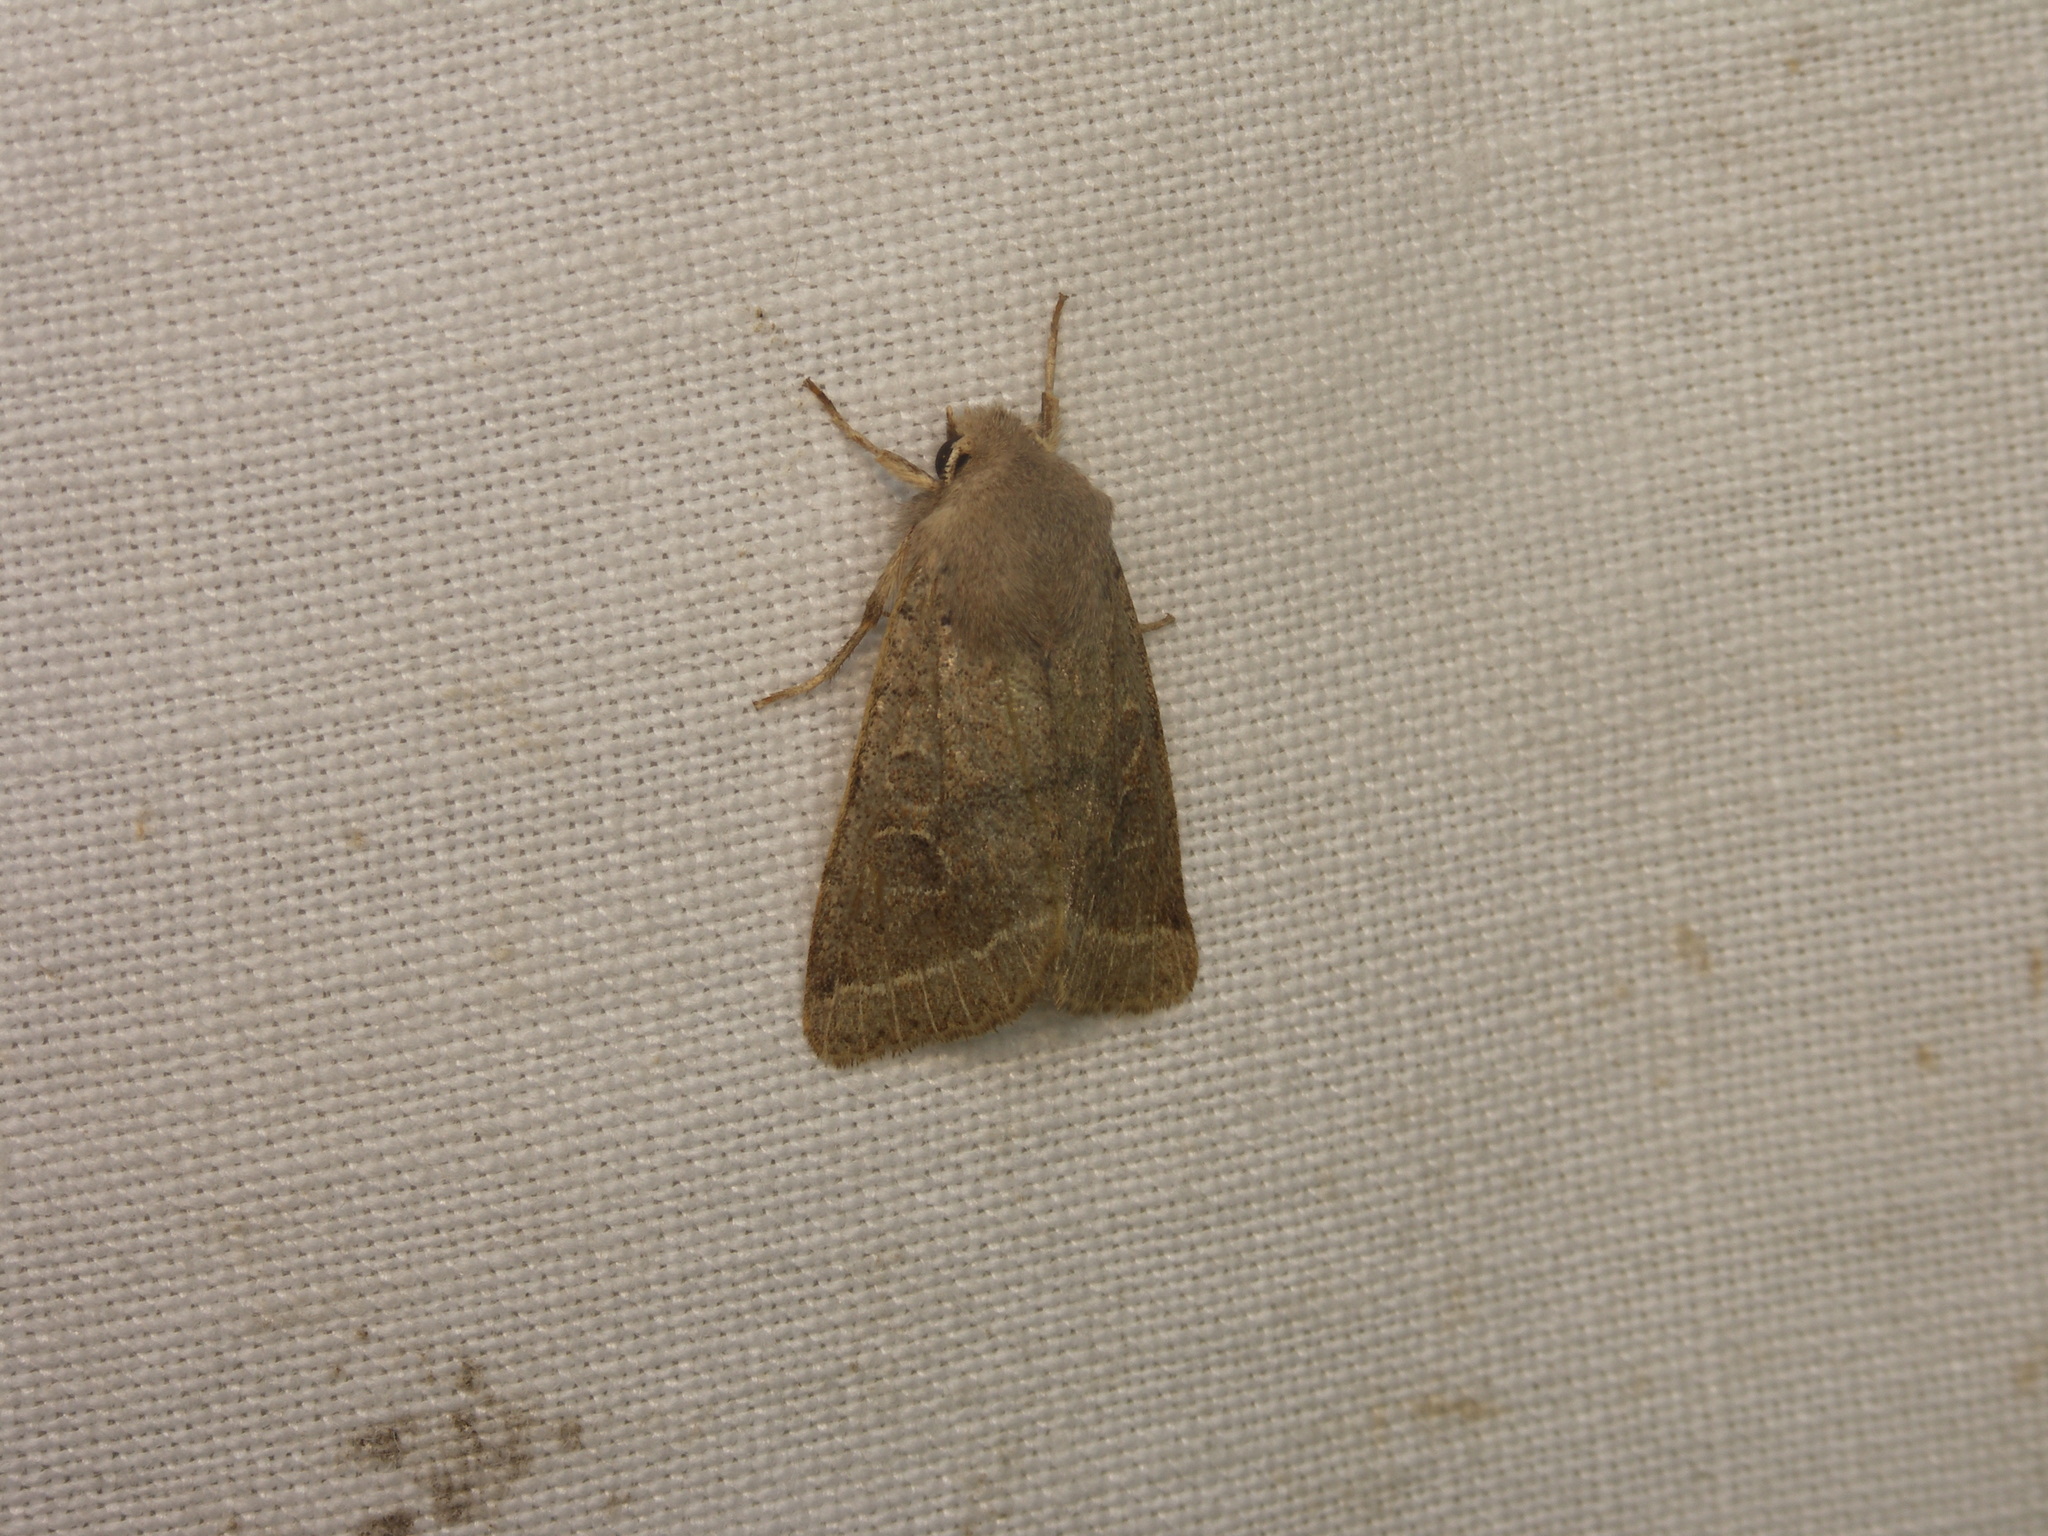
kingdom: Animalia
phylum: Arthropoda
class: Insecta
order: Lepidoptera
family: Noctuidae
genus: Orthosia
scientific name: Orthosia cerasi
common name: Common quaker
